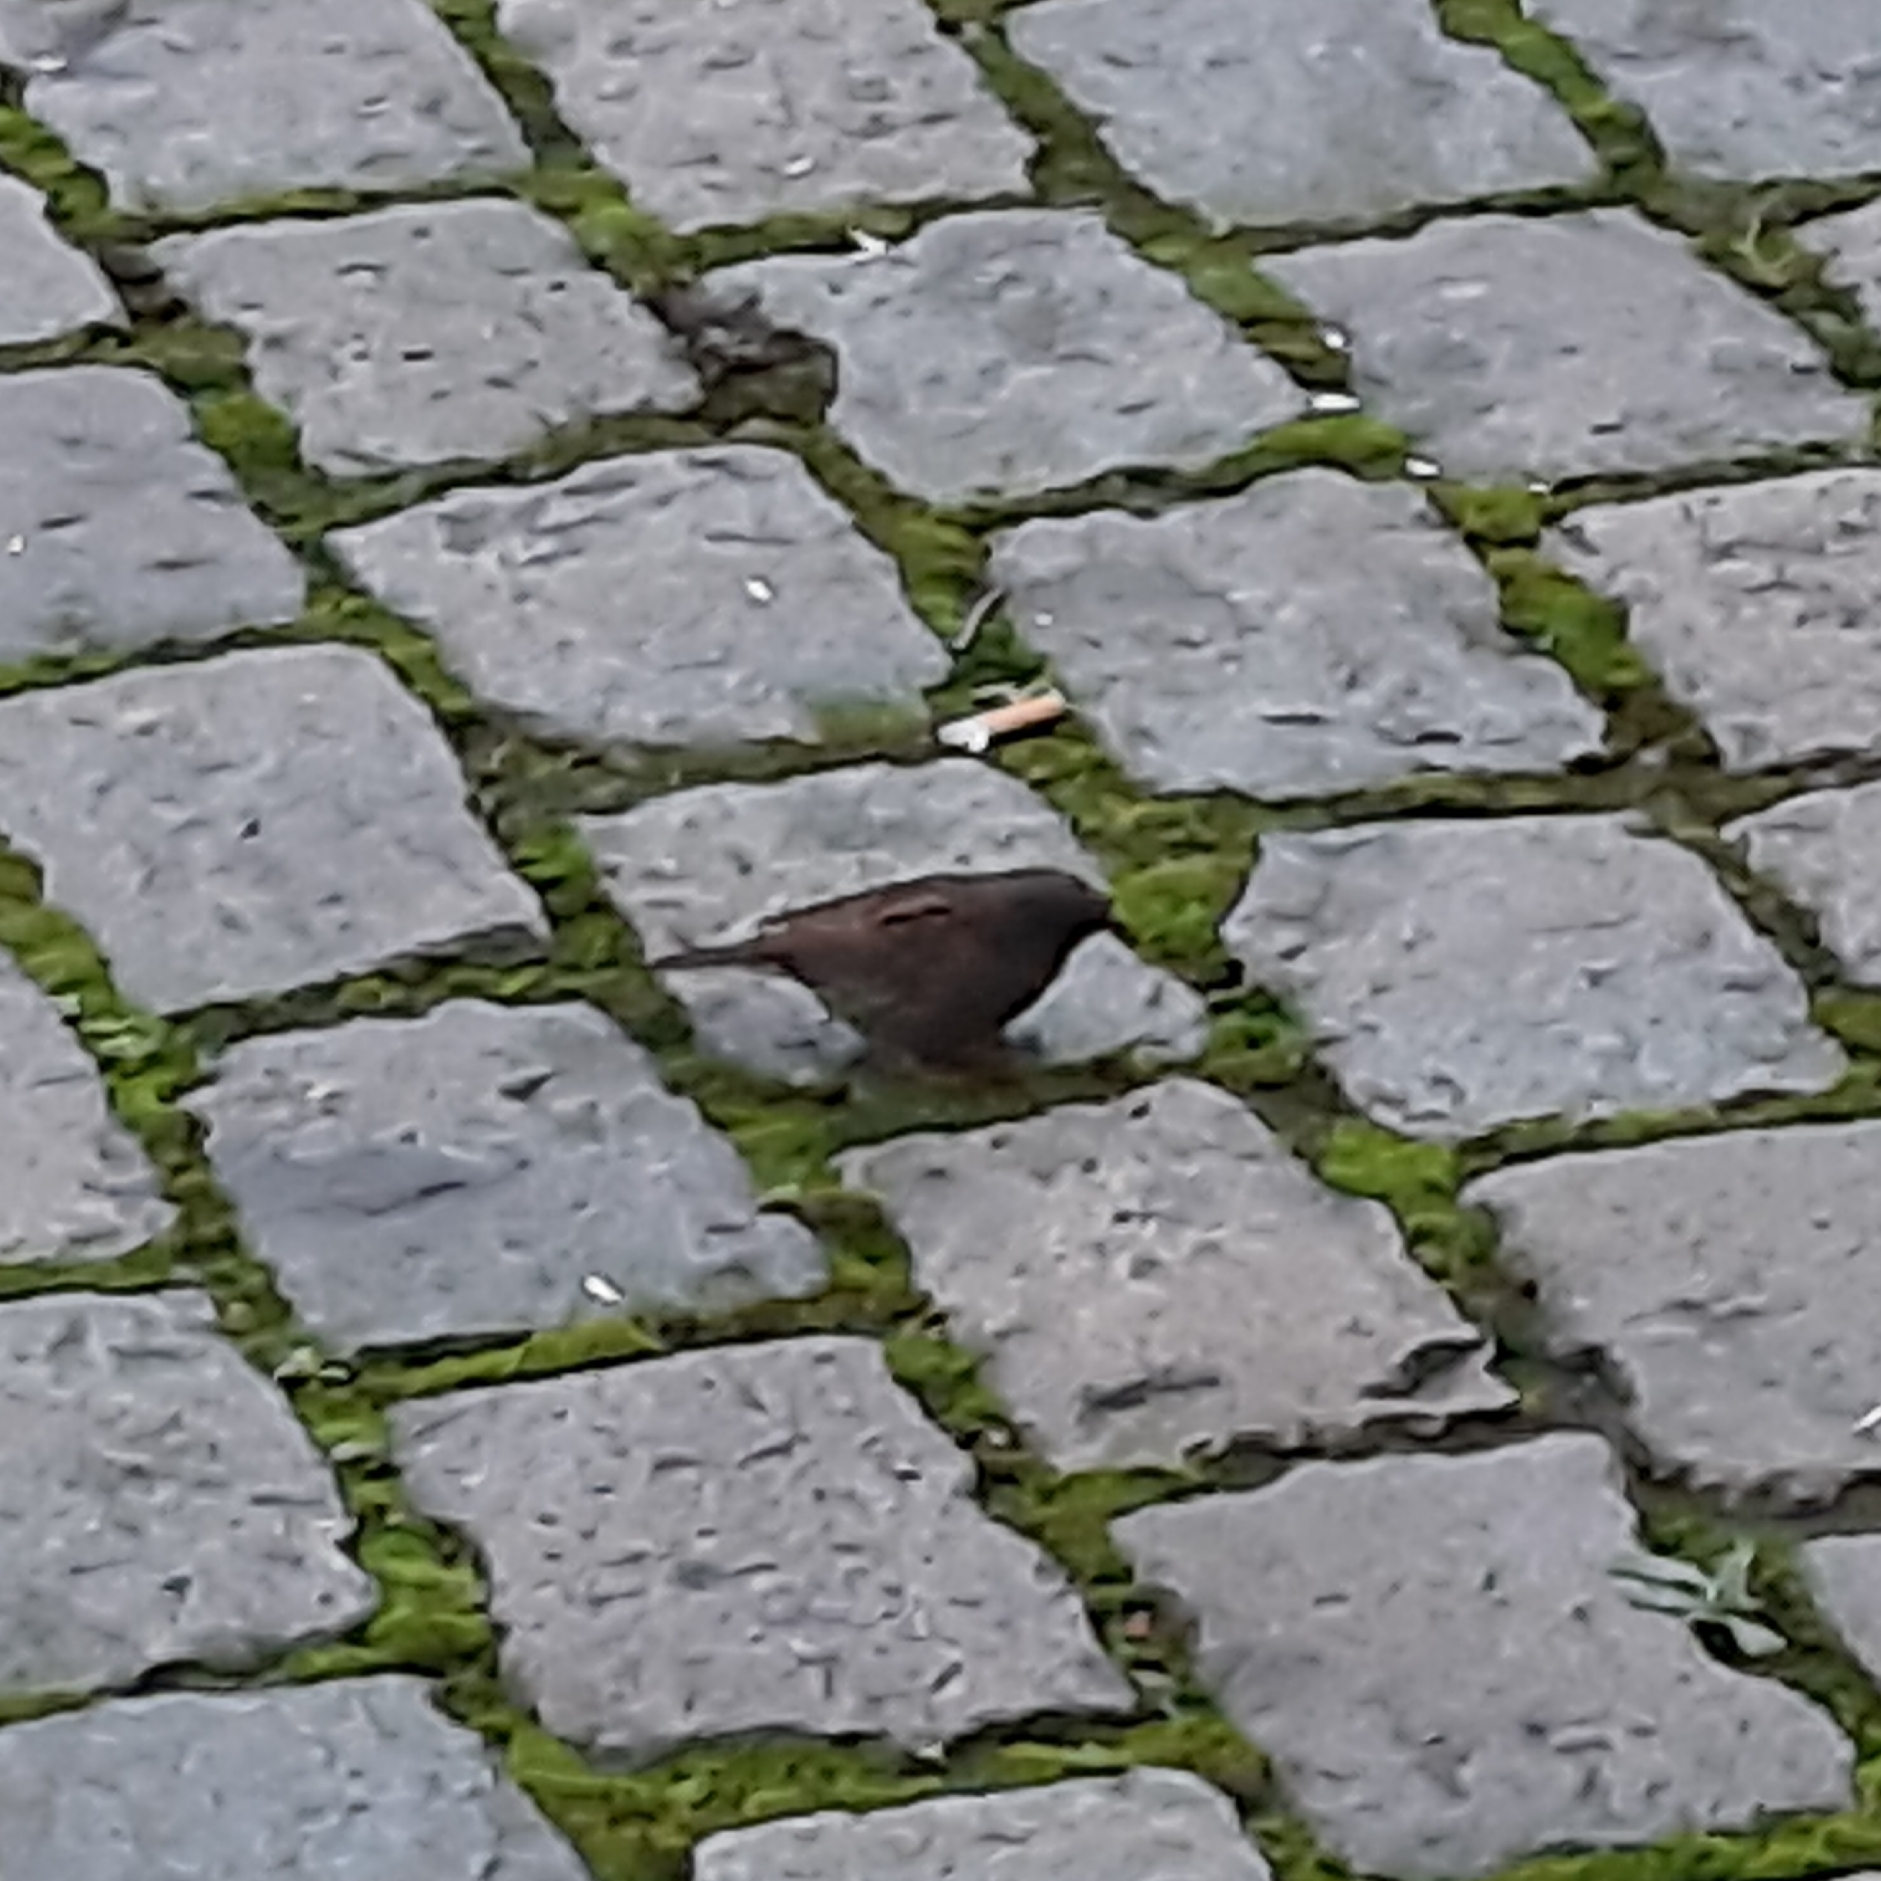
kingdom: Animalia
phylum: Chordata
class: Aves
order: Passeriformes
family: Prunellidae
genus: Prunella
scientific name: Prunella modularis
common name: Dunnock
